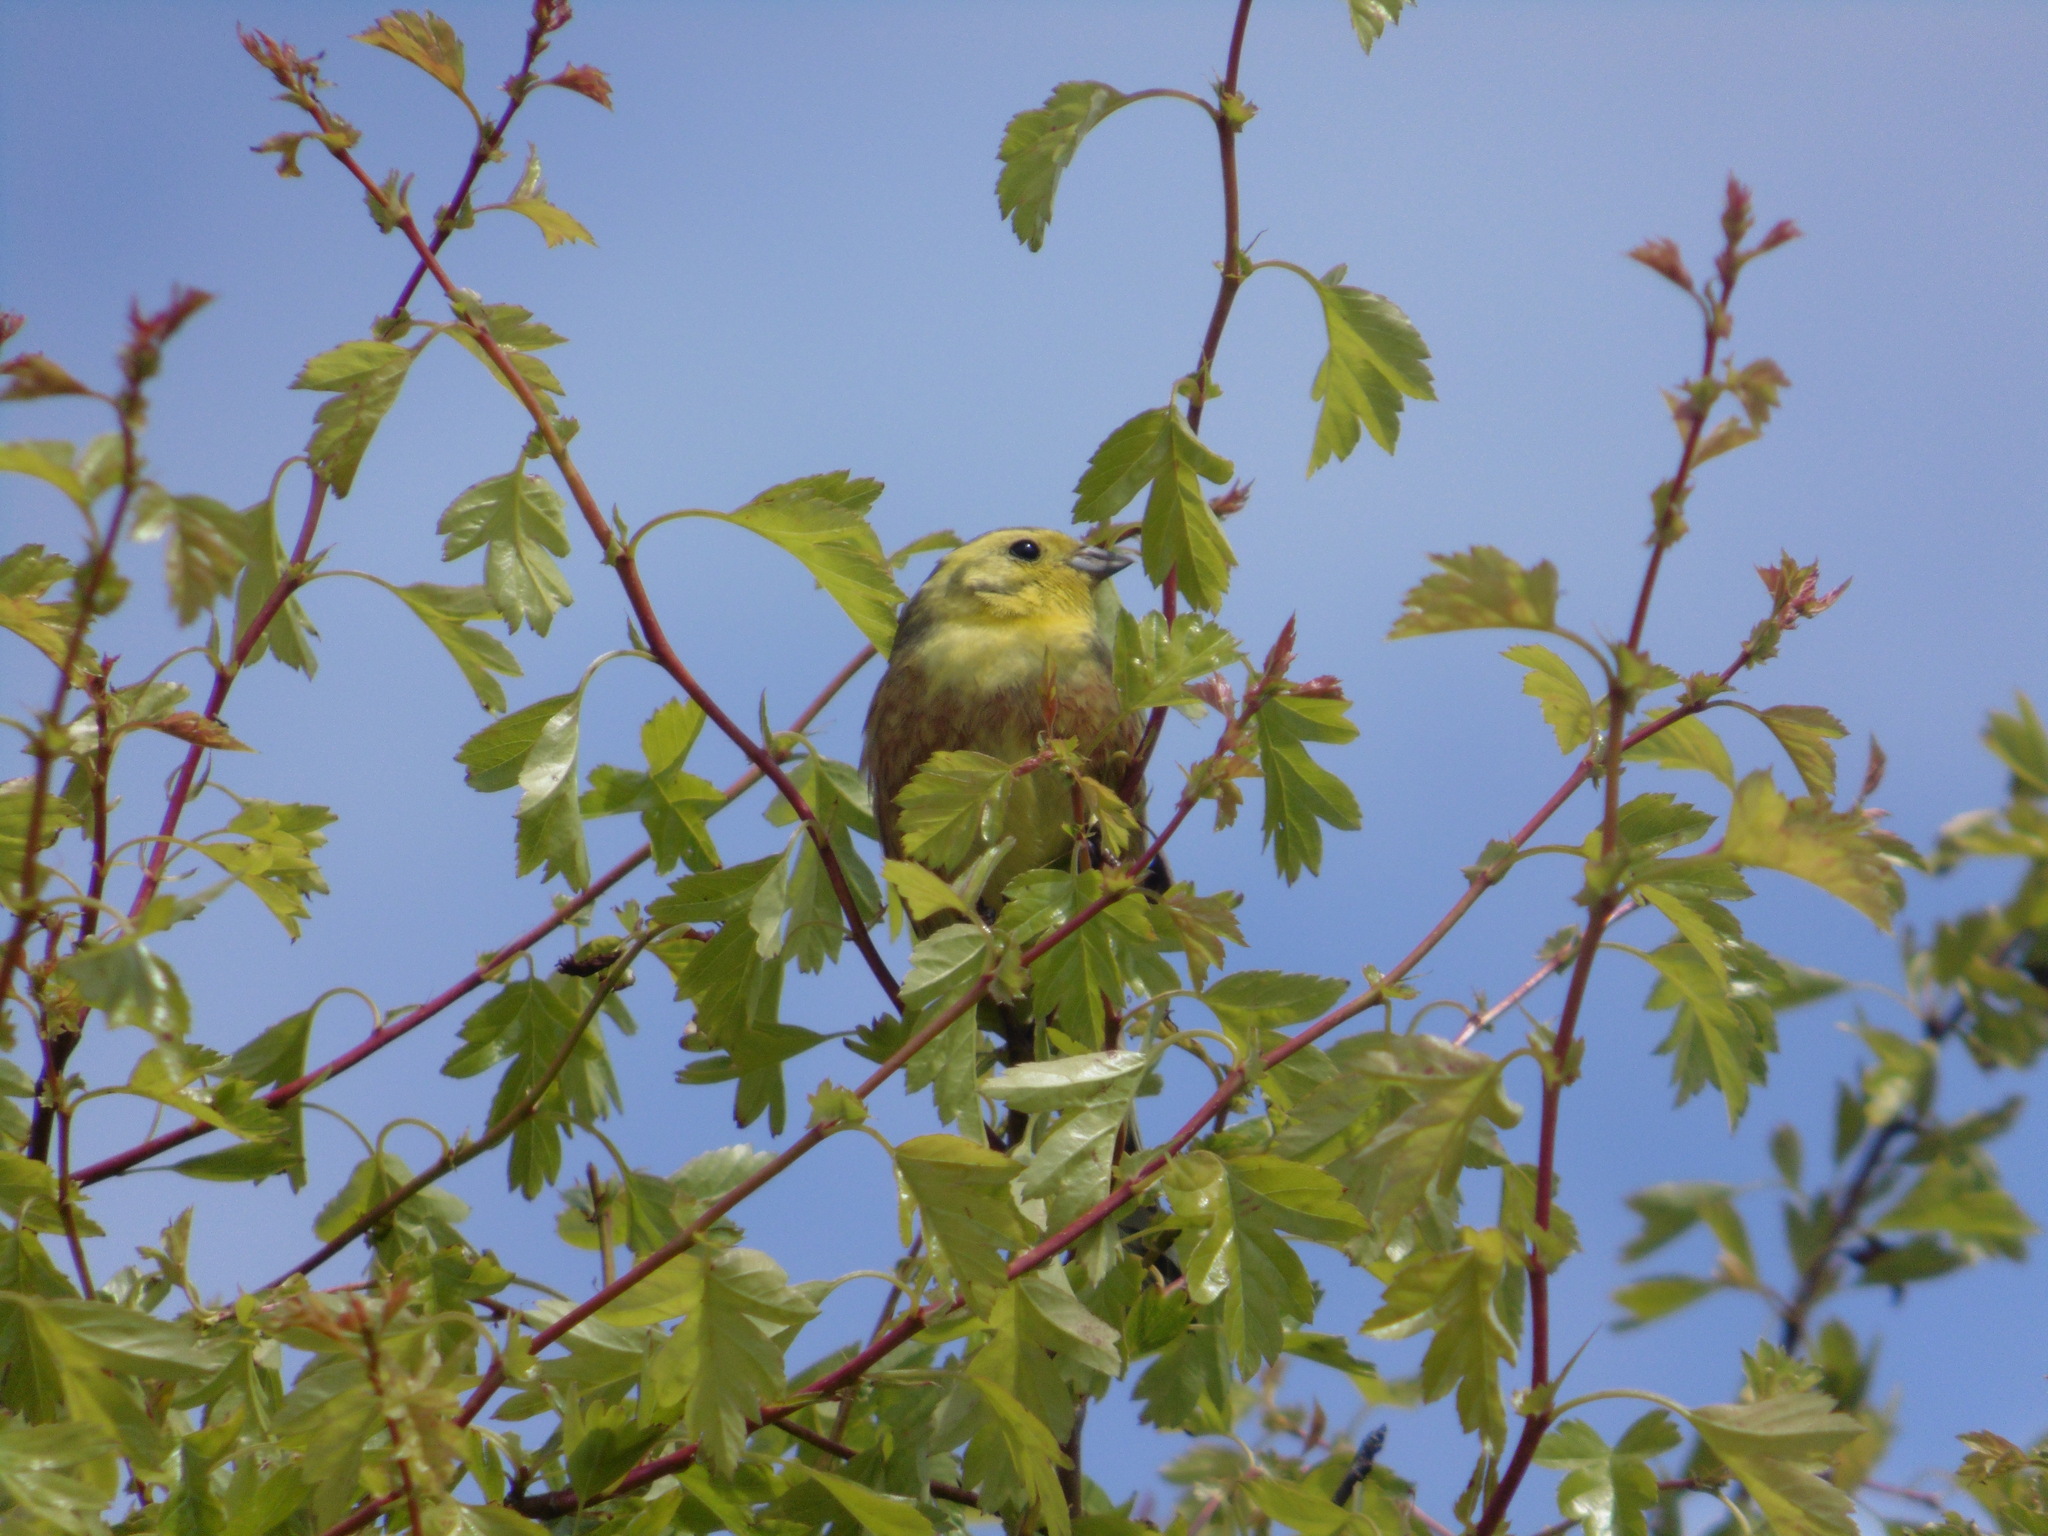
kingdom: Animalia
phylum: Chordata
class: Aves
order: Passeriformes
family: Emberizidae
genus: Emberiza
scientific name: Emberiza citrinella
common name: Yellowhammer
